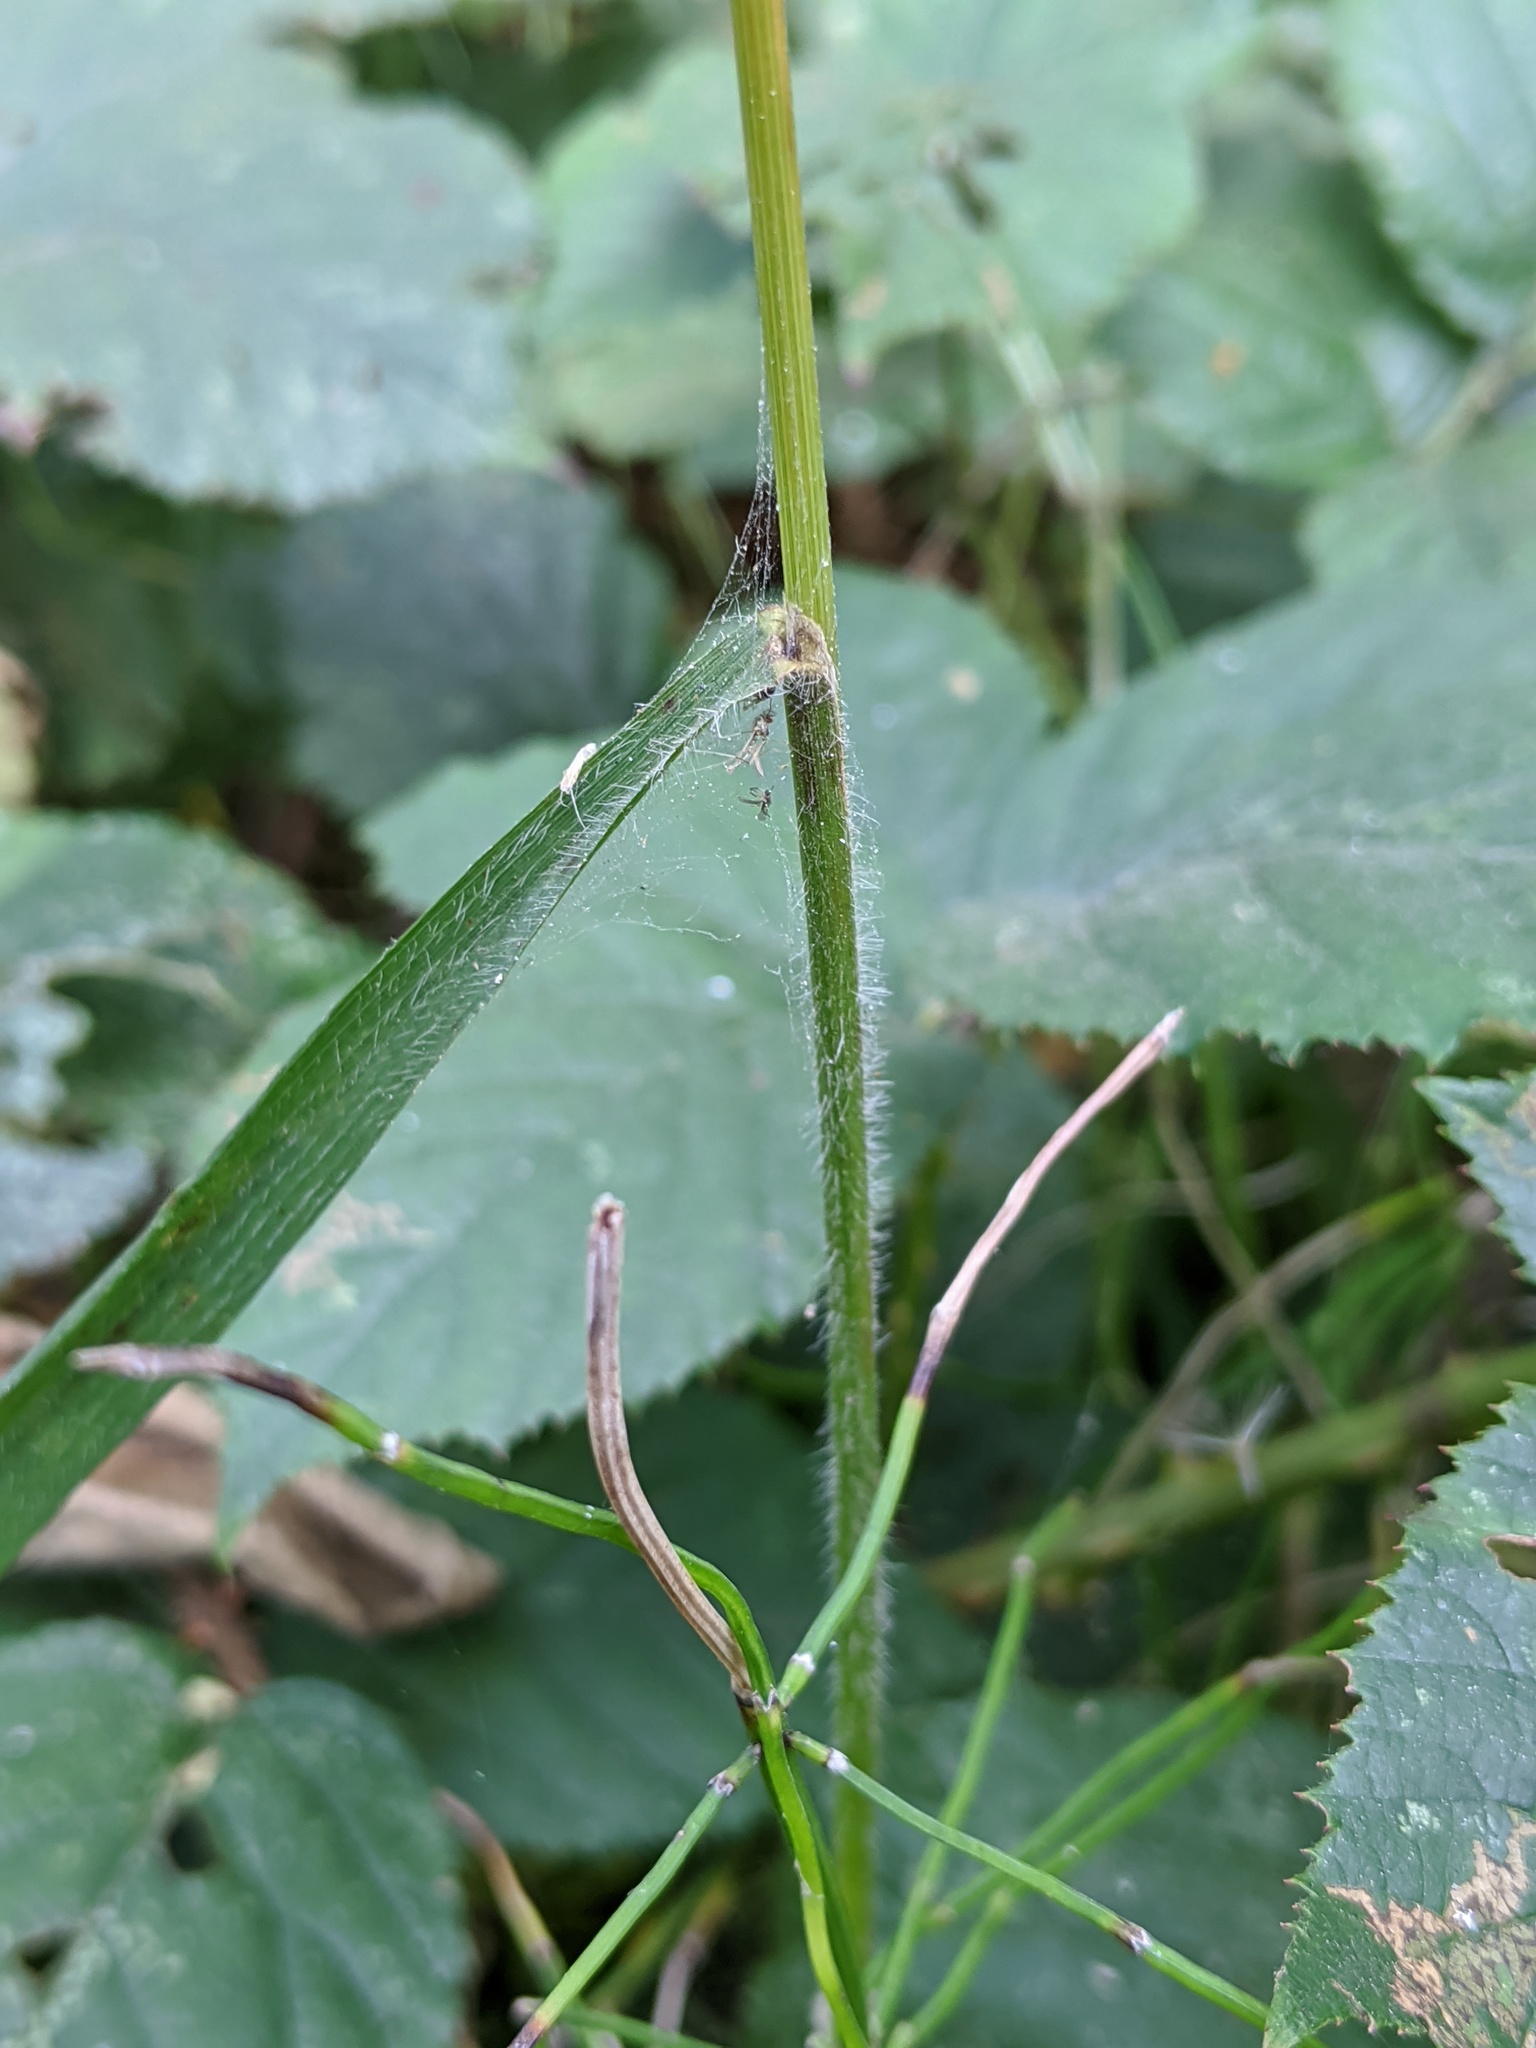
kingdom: Plantae
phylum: Tracheophyta
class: Liliopsida
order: Poales
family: Poaceae
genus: Brachypodium
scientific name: Brachypodium sylvaticum
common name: False-brome
